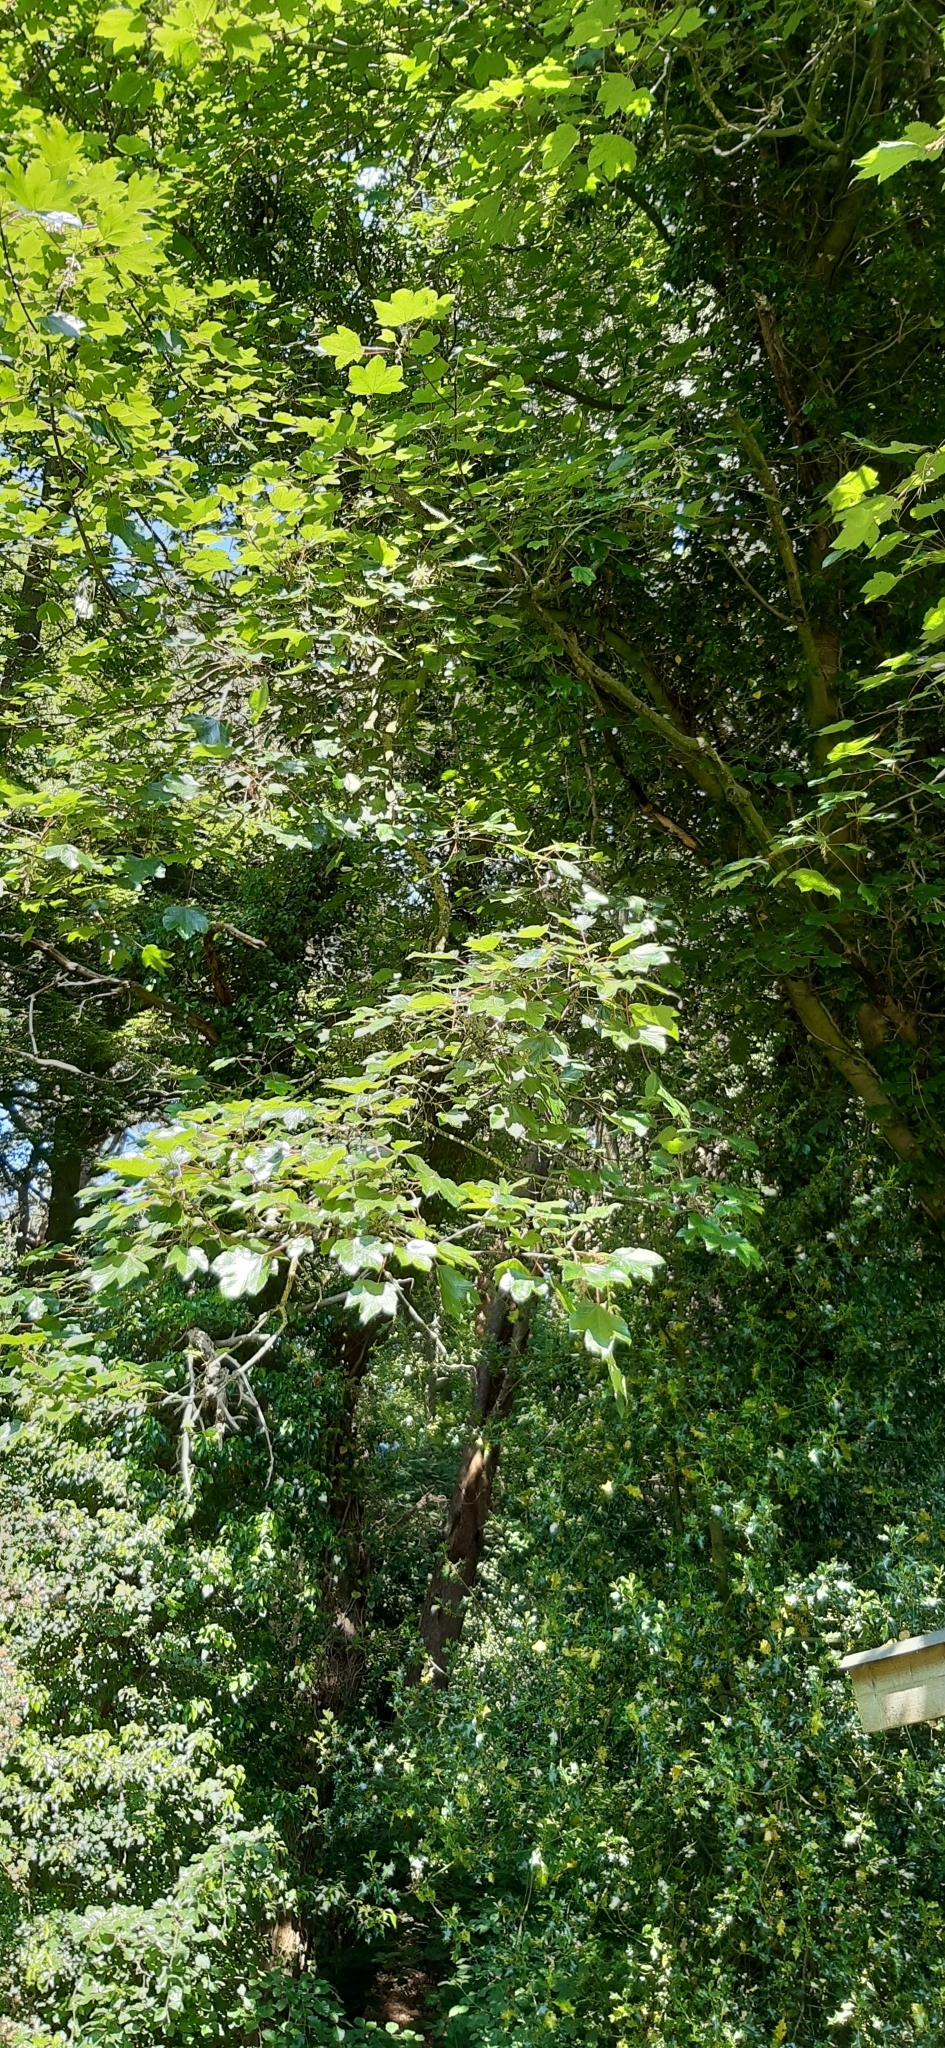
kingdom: Plantae
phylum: Tracheophyta
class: Magnoliopsida
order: Sapindales
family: Sapindaceae
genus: Acer
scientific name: Acer pseudoplatanus
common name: Sycamore
